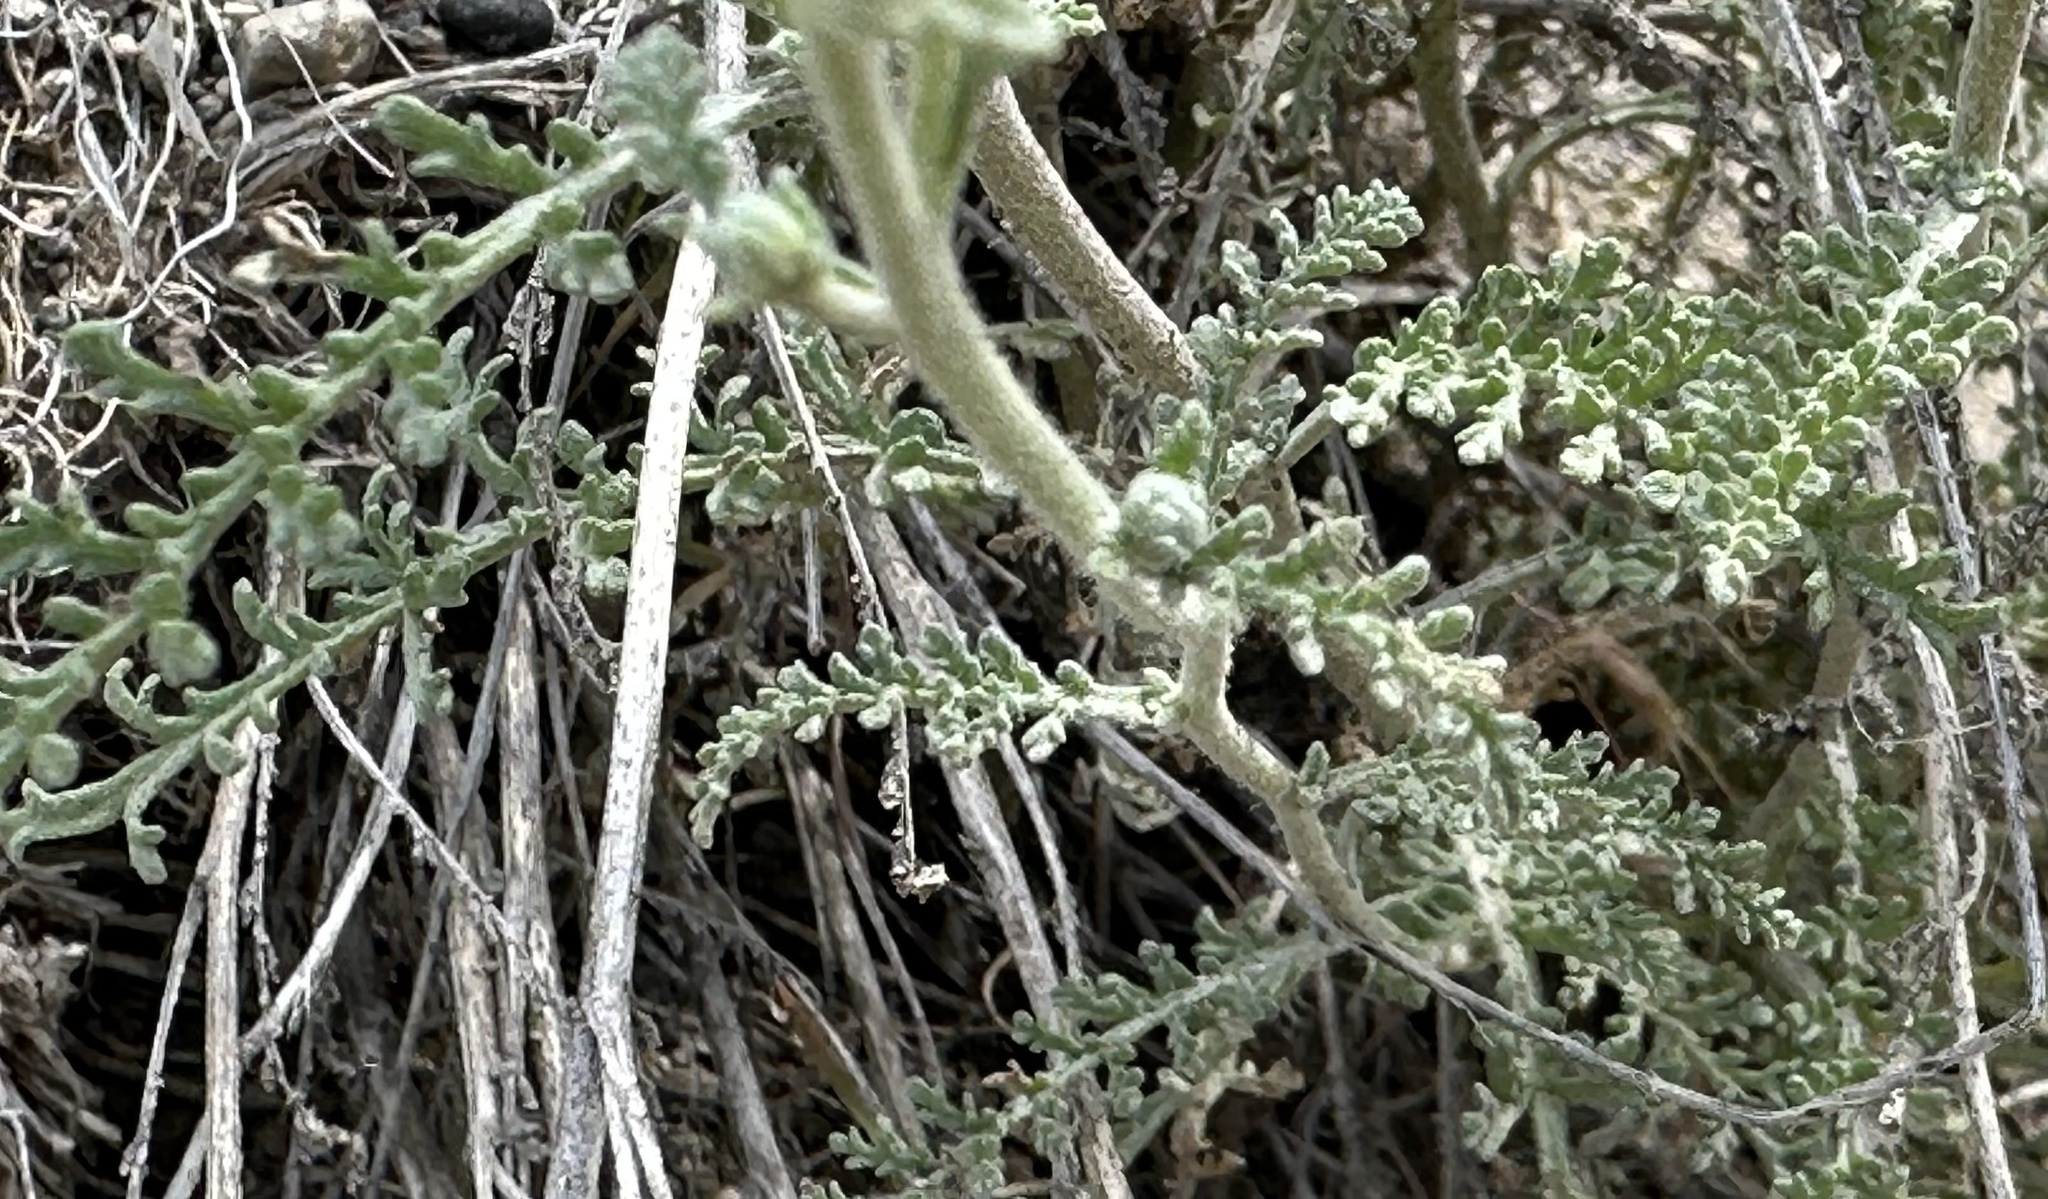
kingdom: Plantae
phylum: Tracheophyta
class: Magnoliopsida
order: Asterales
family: Asteraceae
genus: Chaenactis
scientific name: Chaenactis douglasii
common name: Hoary pincushion
